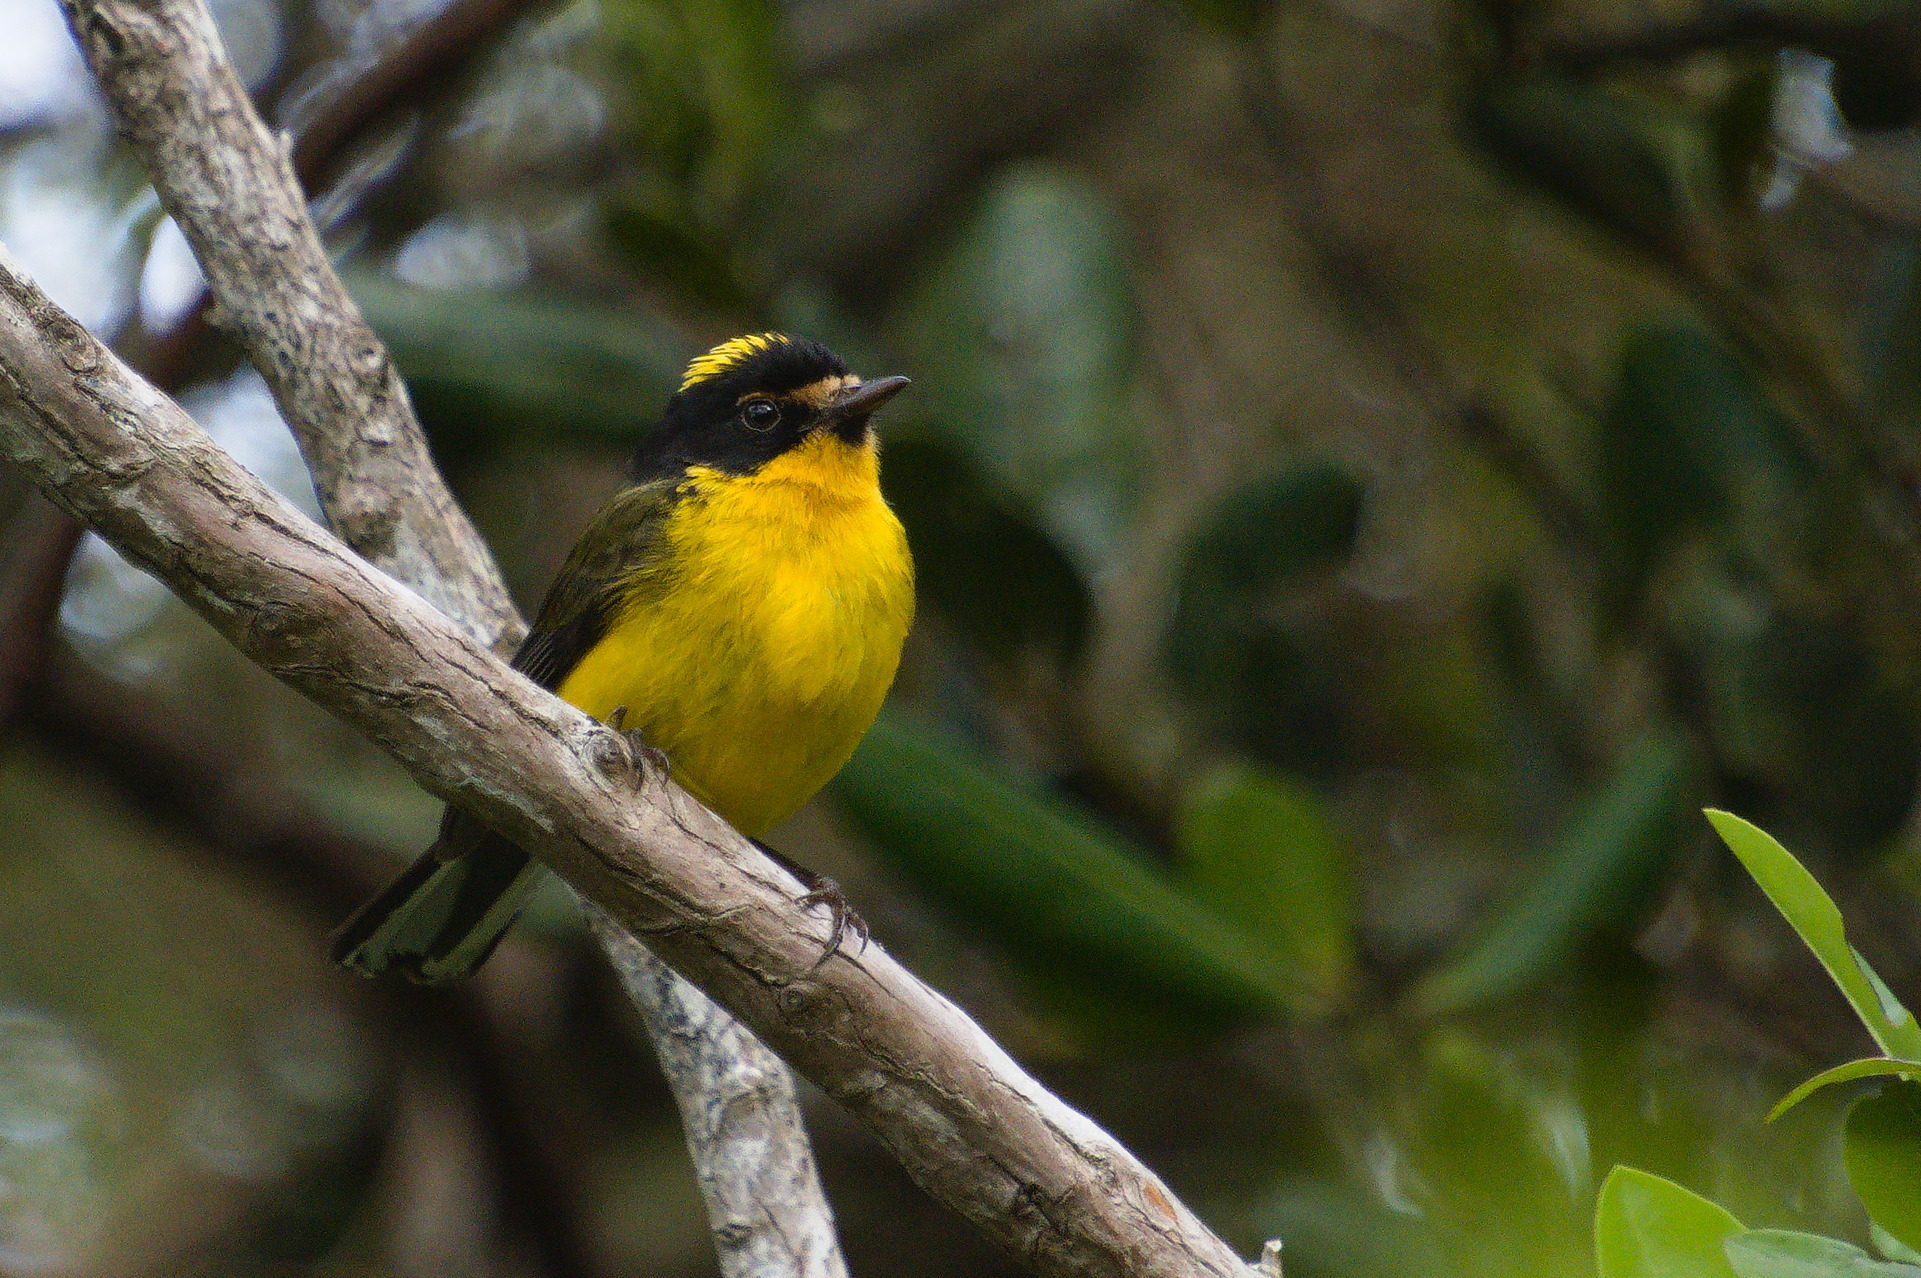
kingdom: Animalia
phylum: Chordata
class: Aves
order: Passeriformes
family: Parulidae
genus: Myioborus
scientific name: Myioborus flavivertex
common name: Yellow-crowned whitestart
